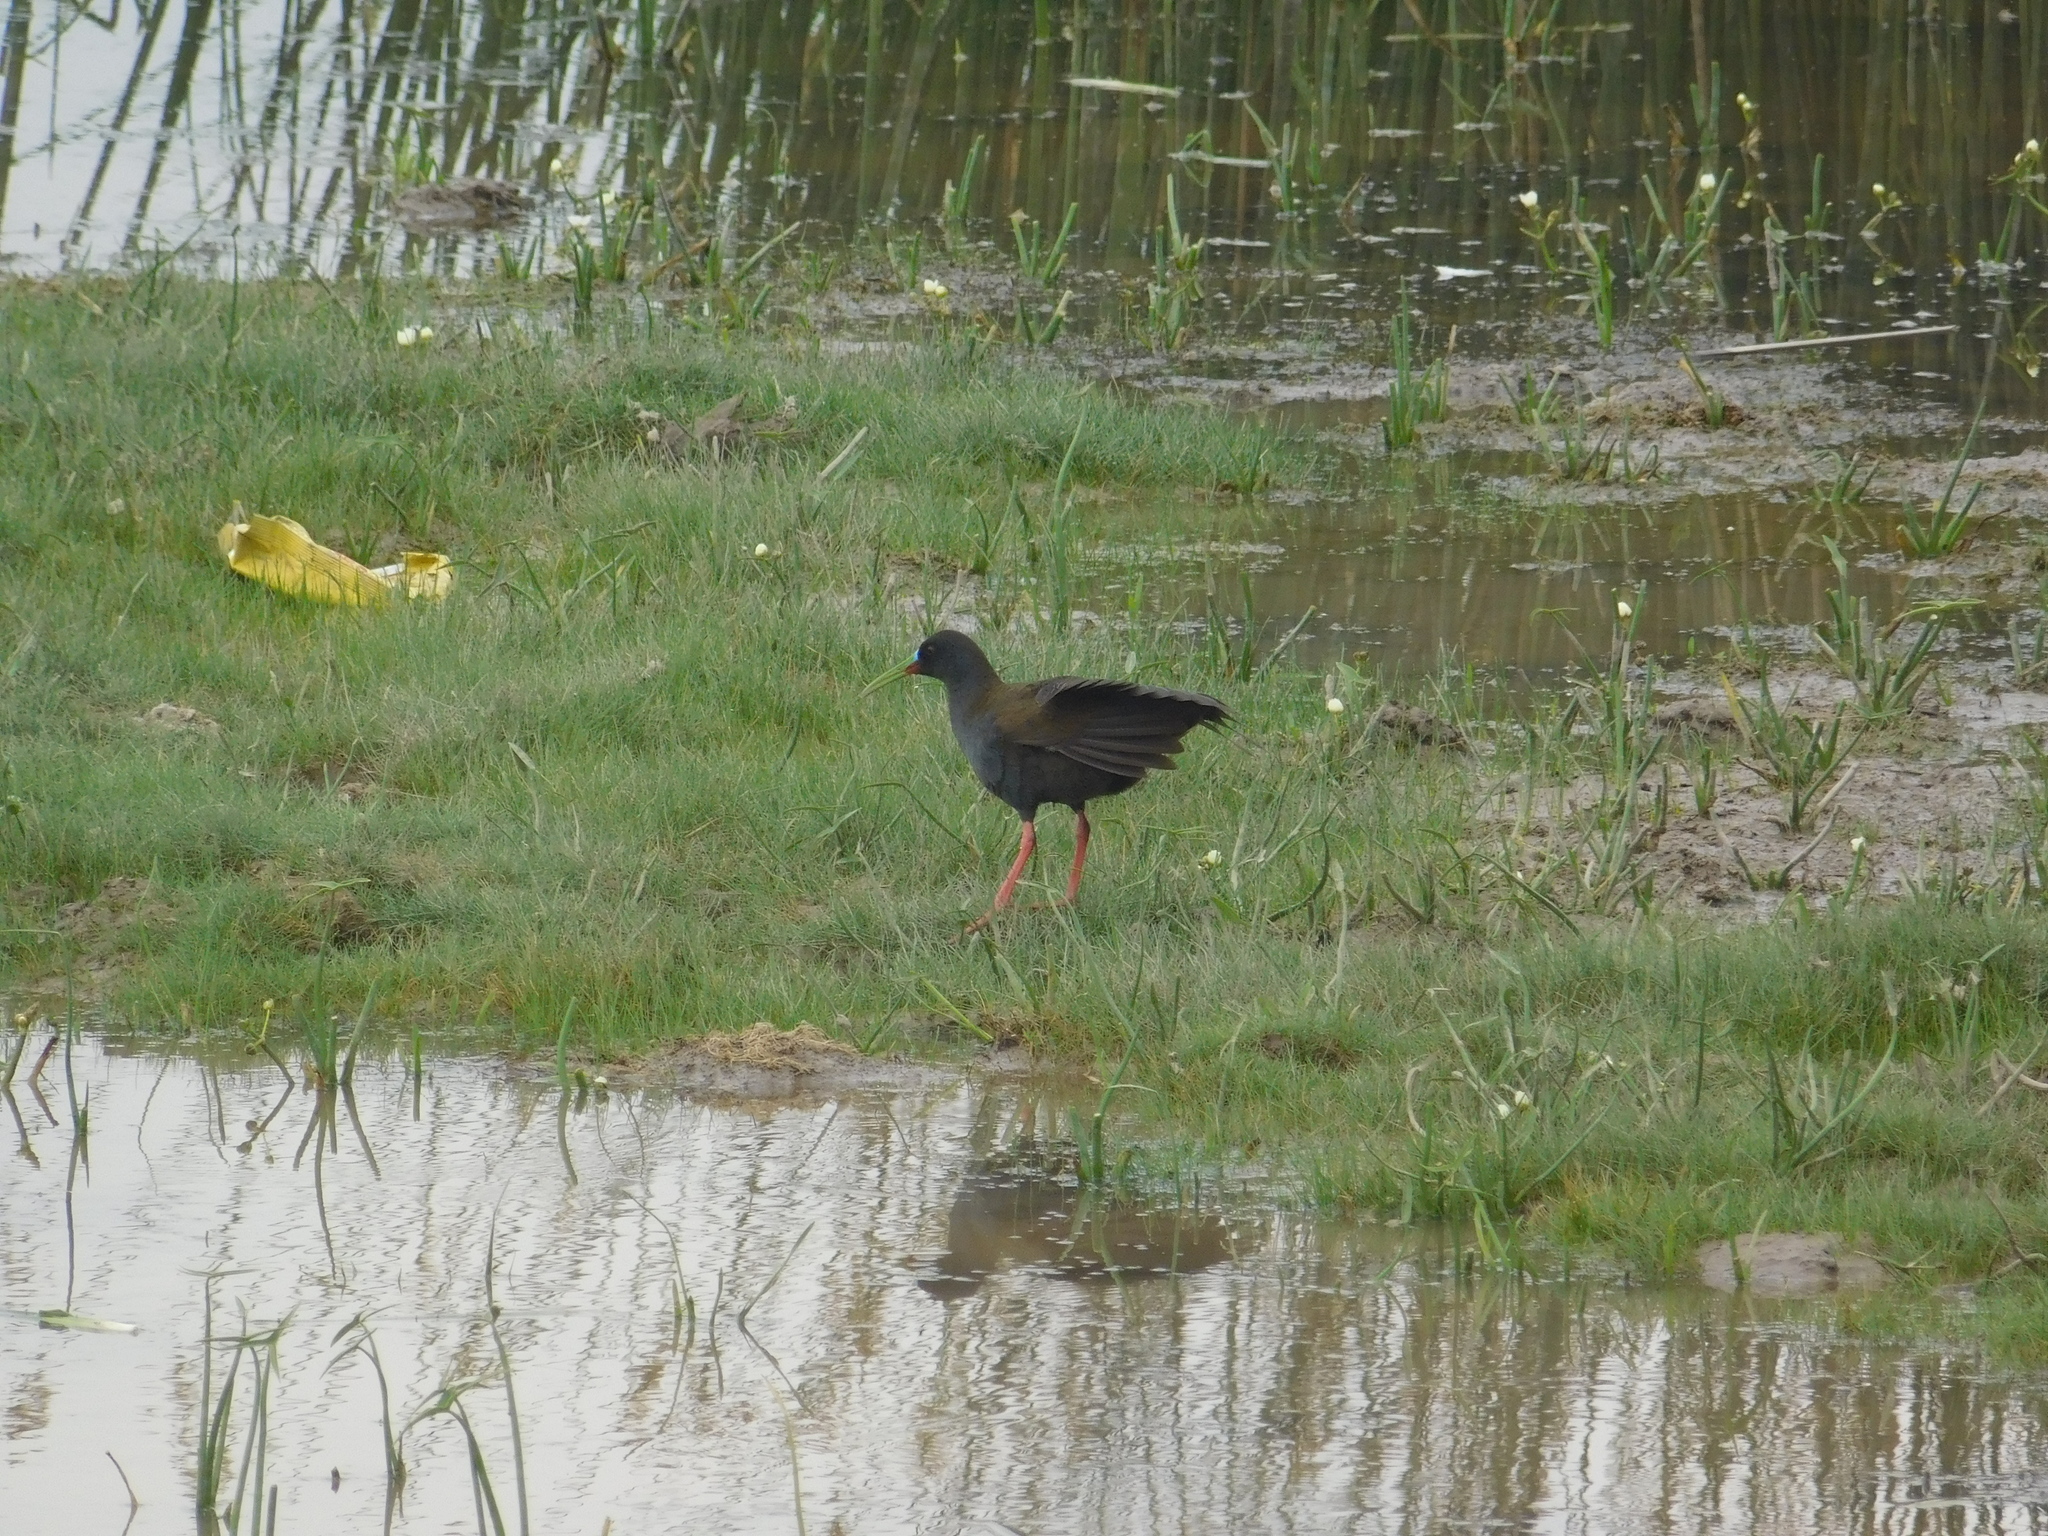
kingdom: Animalia
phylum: Chordata
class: Aves
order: Gruiformes
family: Rallidae
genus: Pardirallus
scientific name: Pardirallus sanguinolentus
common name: Plumbeous rail
